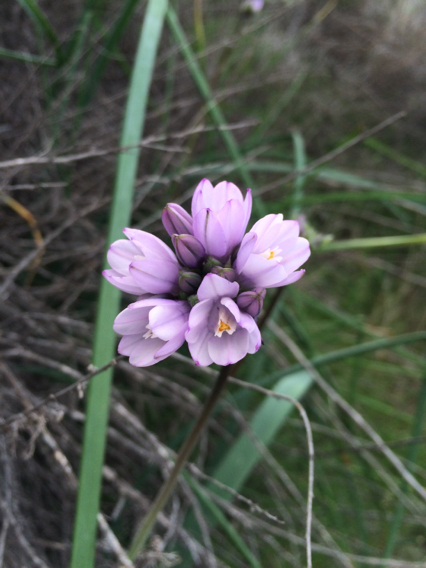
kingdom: Plantae
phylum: Tracheophyta
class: Liliopsida
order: Asparagales
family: Asparagaceae
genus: Dipterostemon
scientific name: Dipterostemon capitatus
